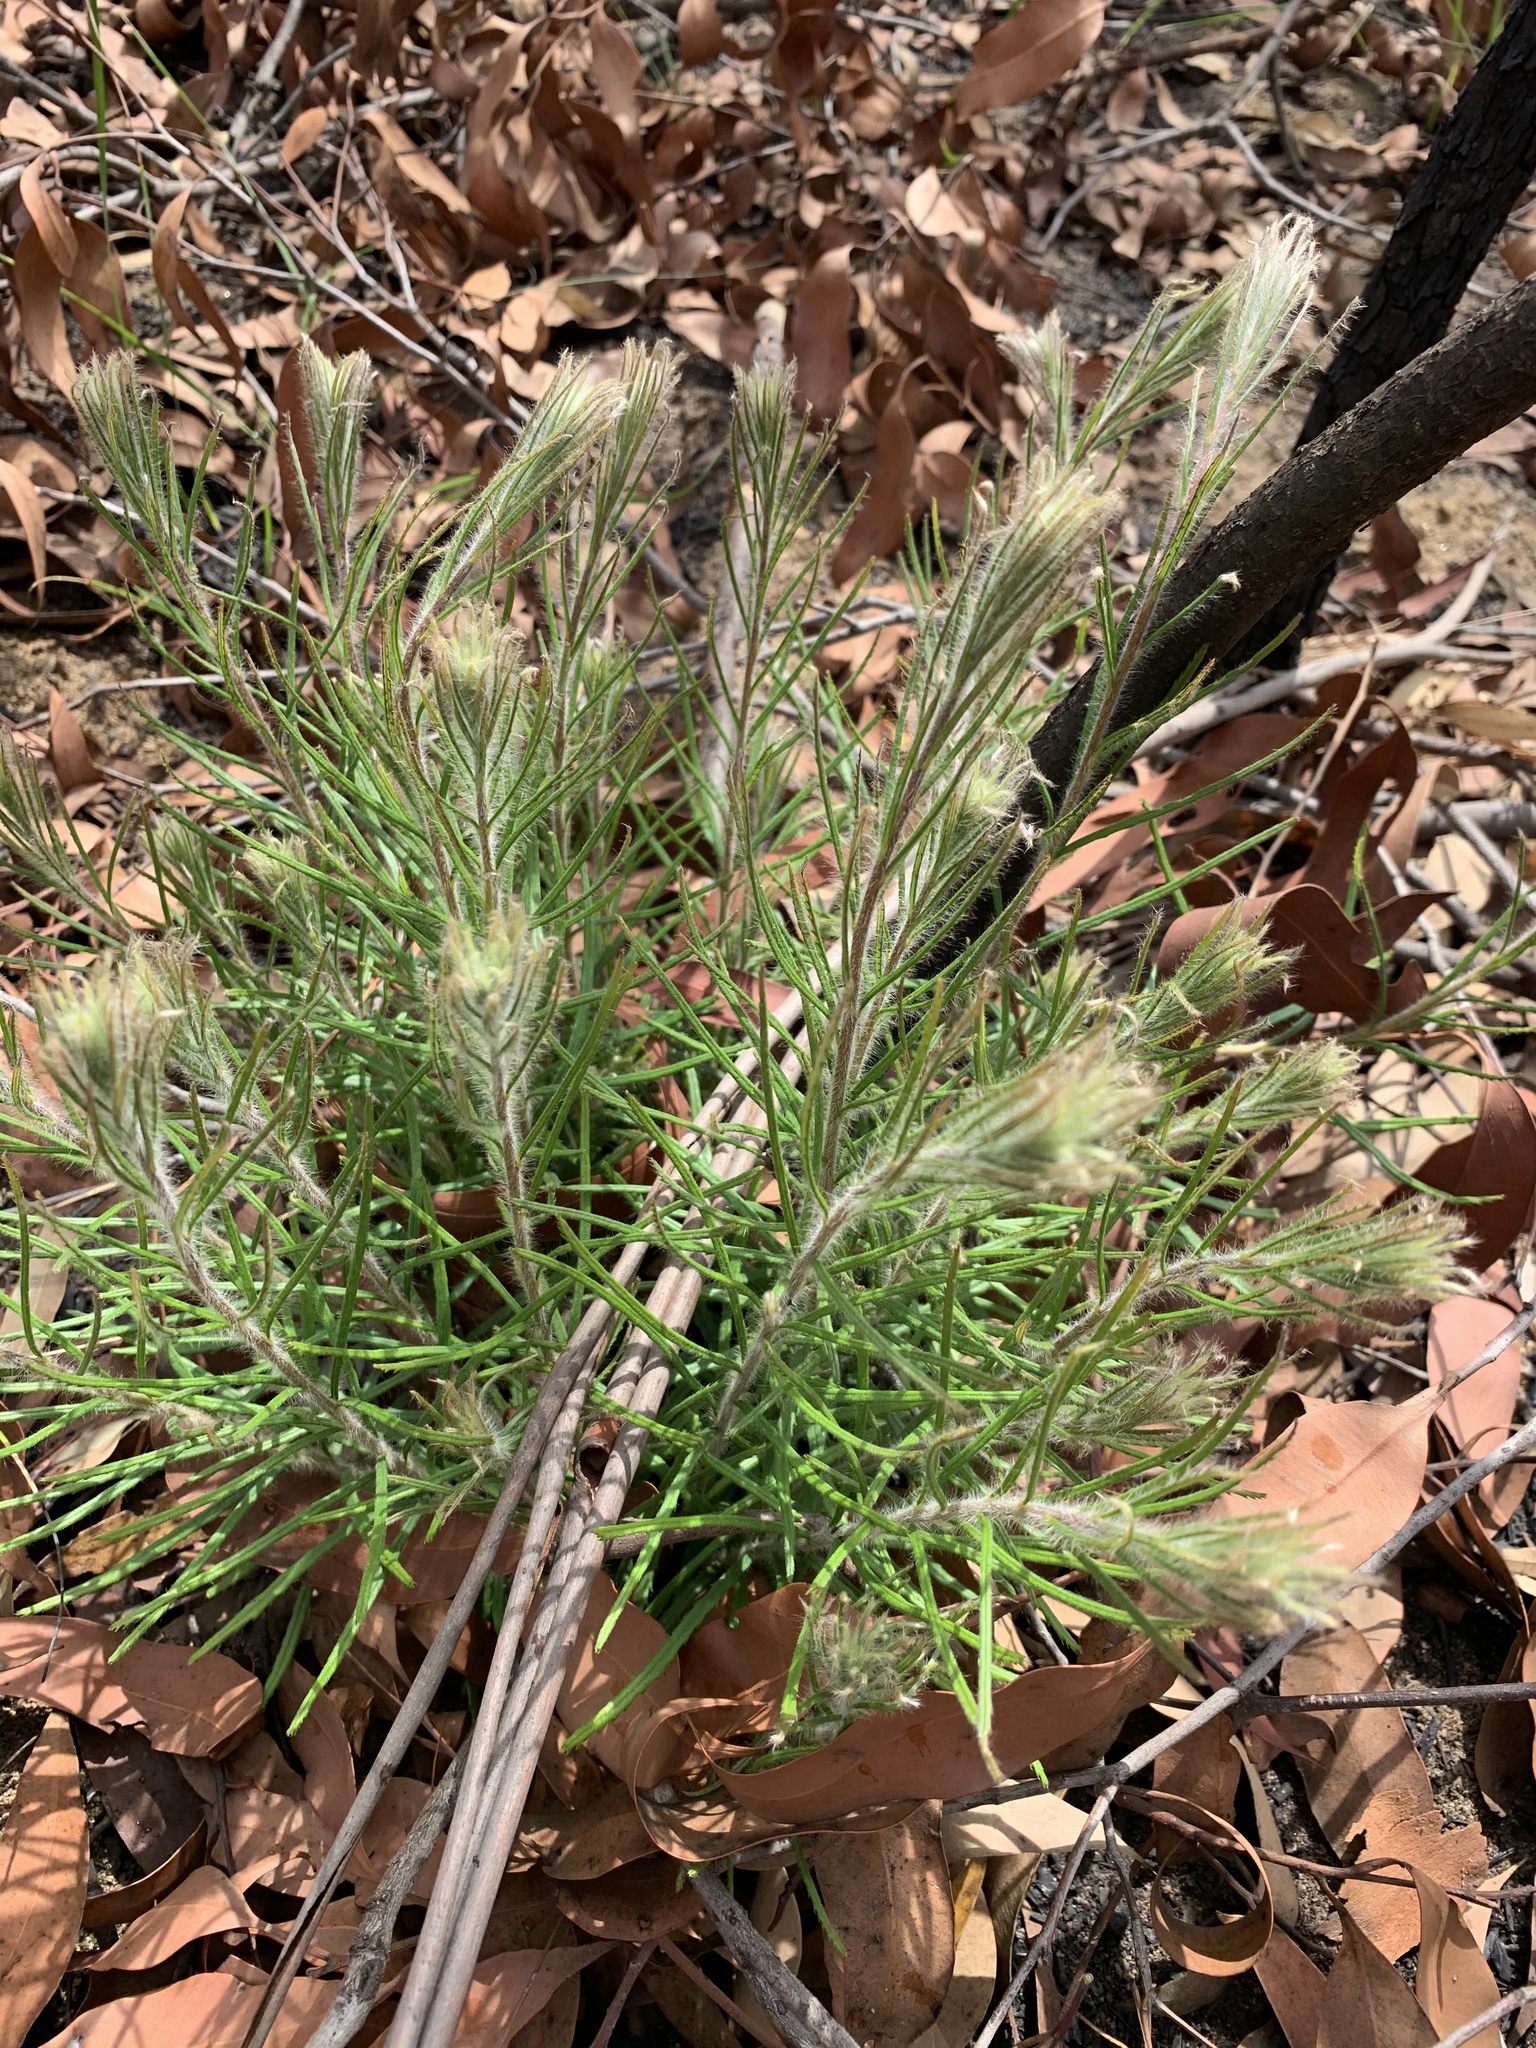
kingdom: Plantae
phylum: Tracheophyta
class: Magnoliopsida
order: Proteales
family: Proteaceae
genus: Banksia
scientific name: Banksia spinulosa
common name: Hairpin banksia
